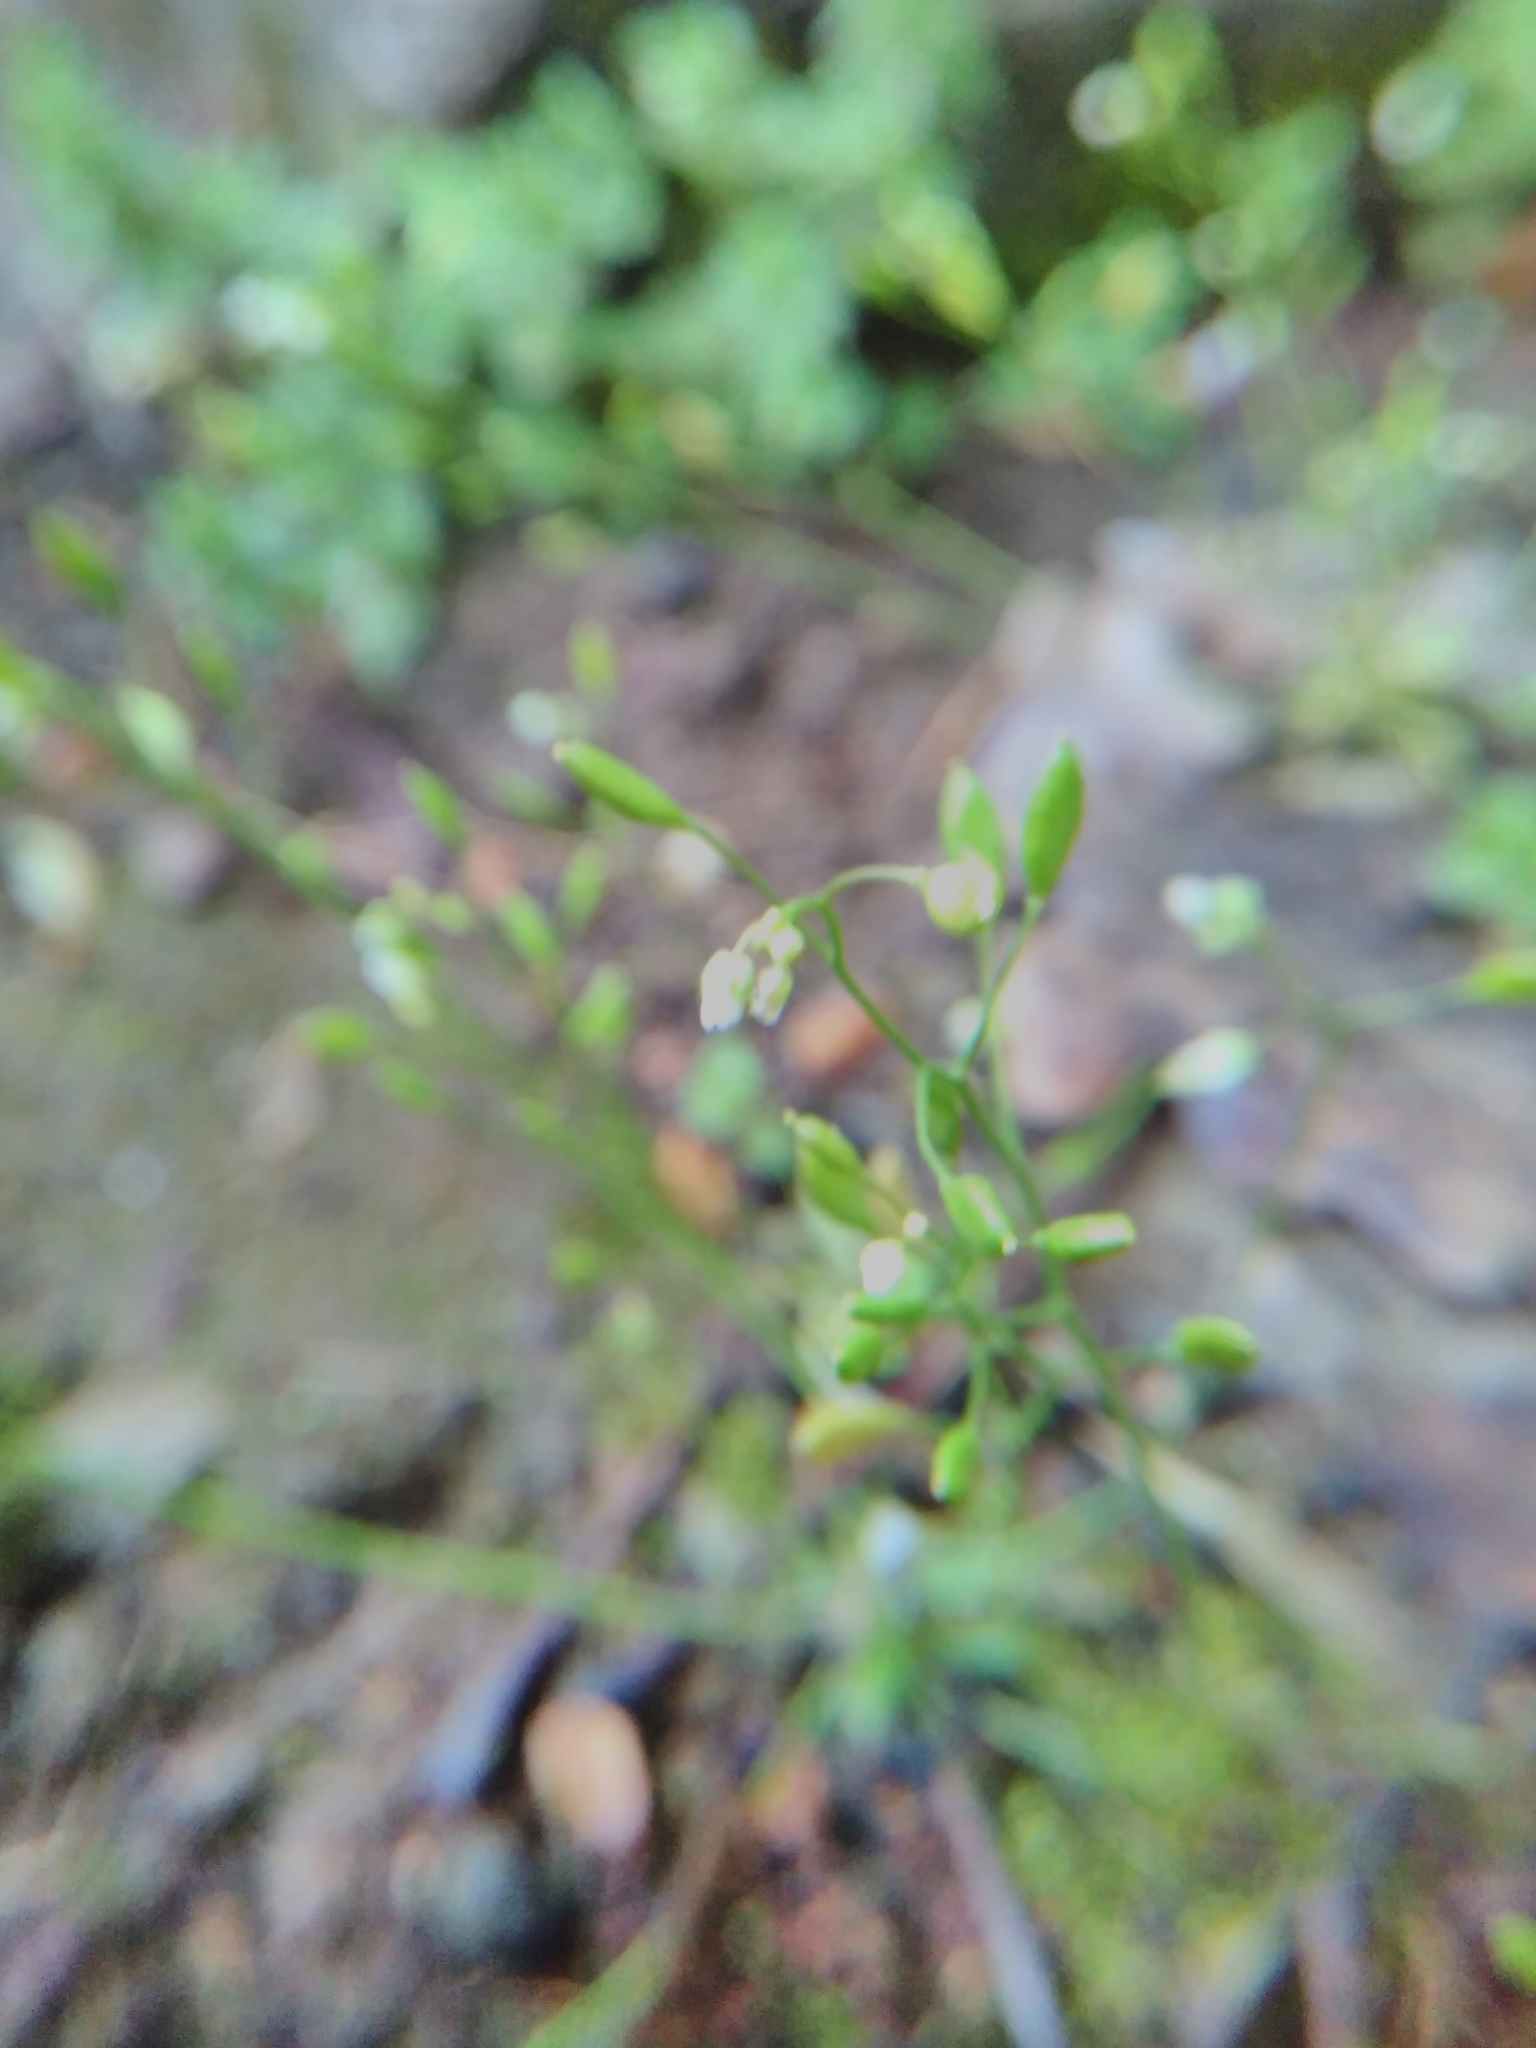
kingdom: Plantae
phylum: Tracheophyta
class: Magnoliopsida
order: Brassicales
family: Brassicaceae
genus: Draba
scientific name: Draba verna
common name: Spring draba
